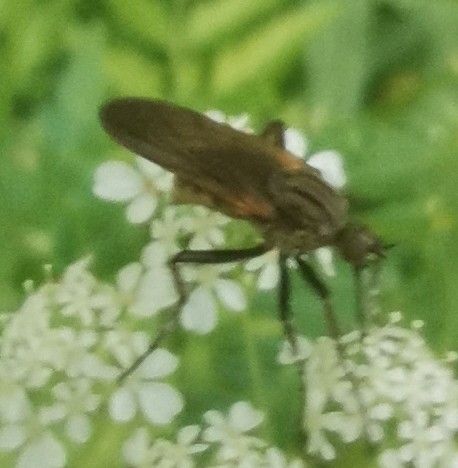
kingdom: Animalia
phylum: Arthropoda
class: Insecta
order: Diptera
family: Empididae
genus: Empis
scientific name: Empis tessellata
